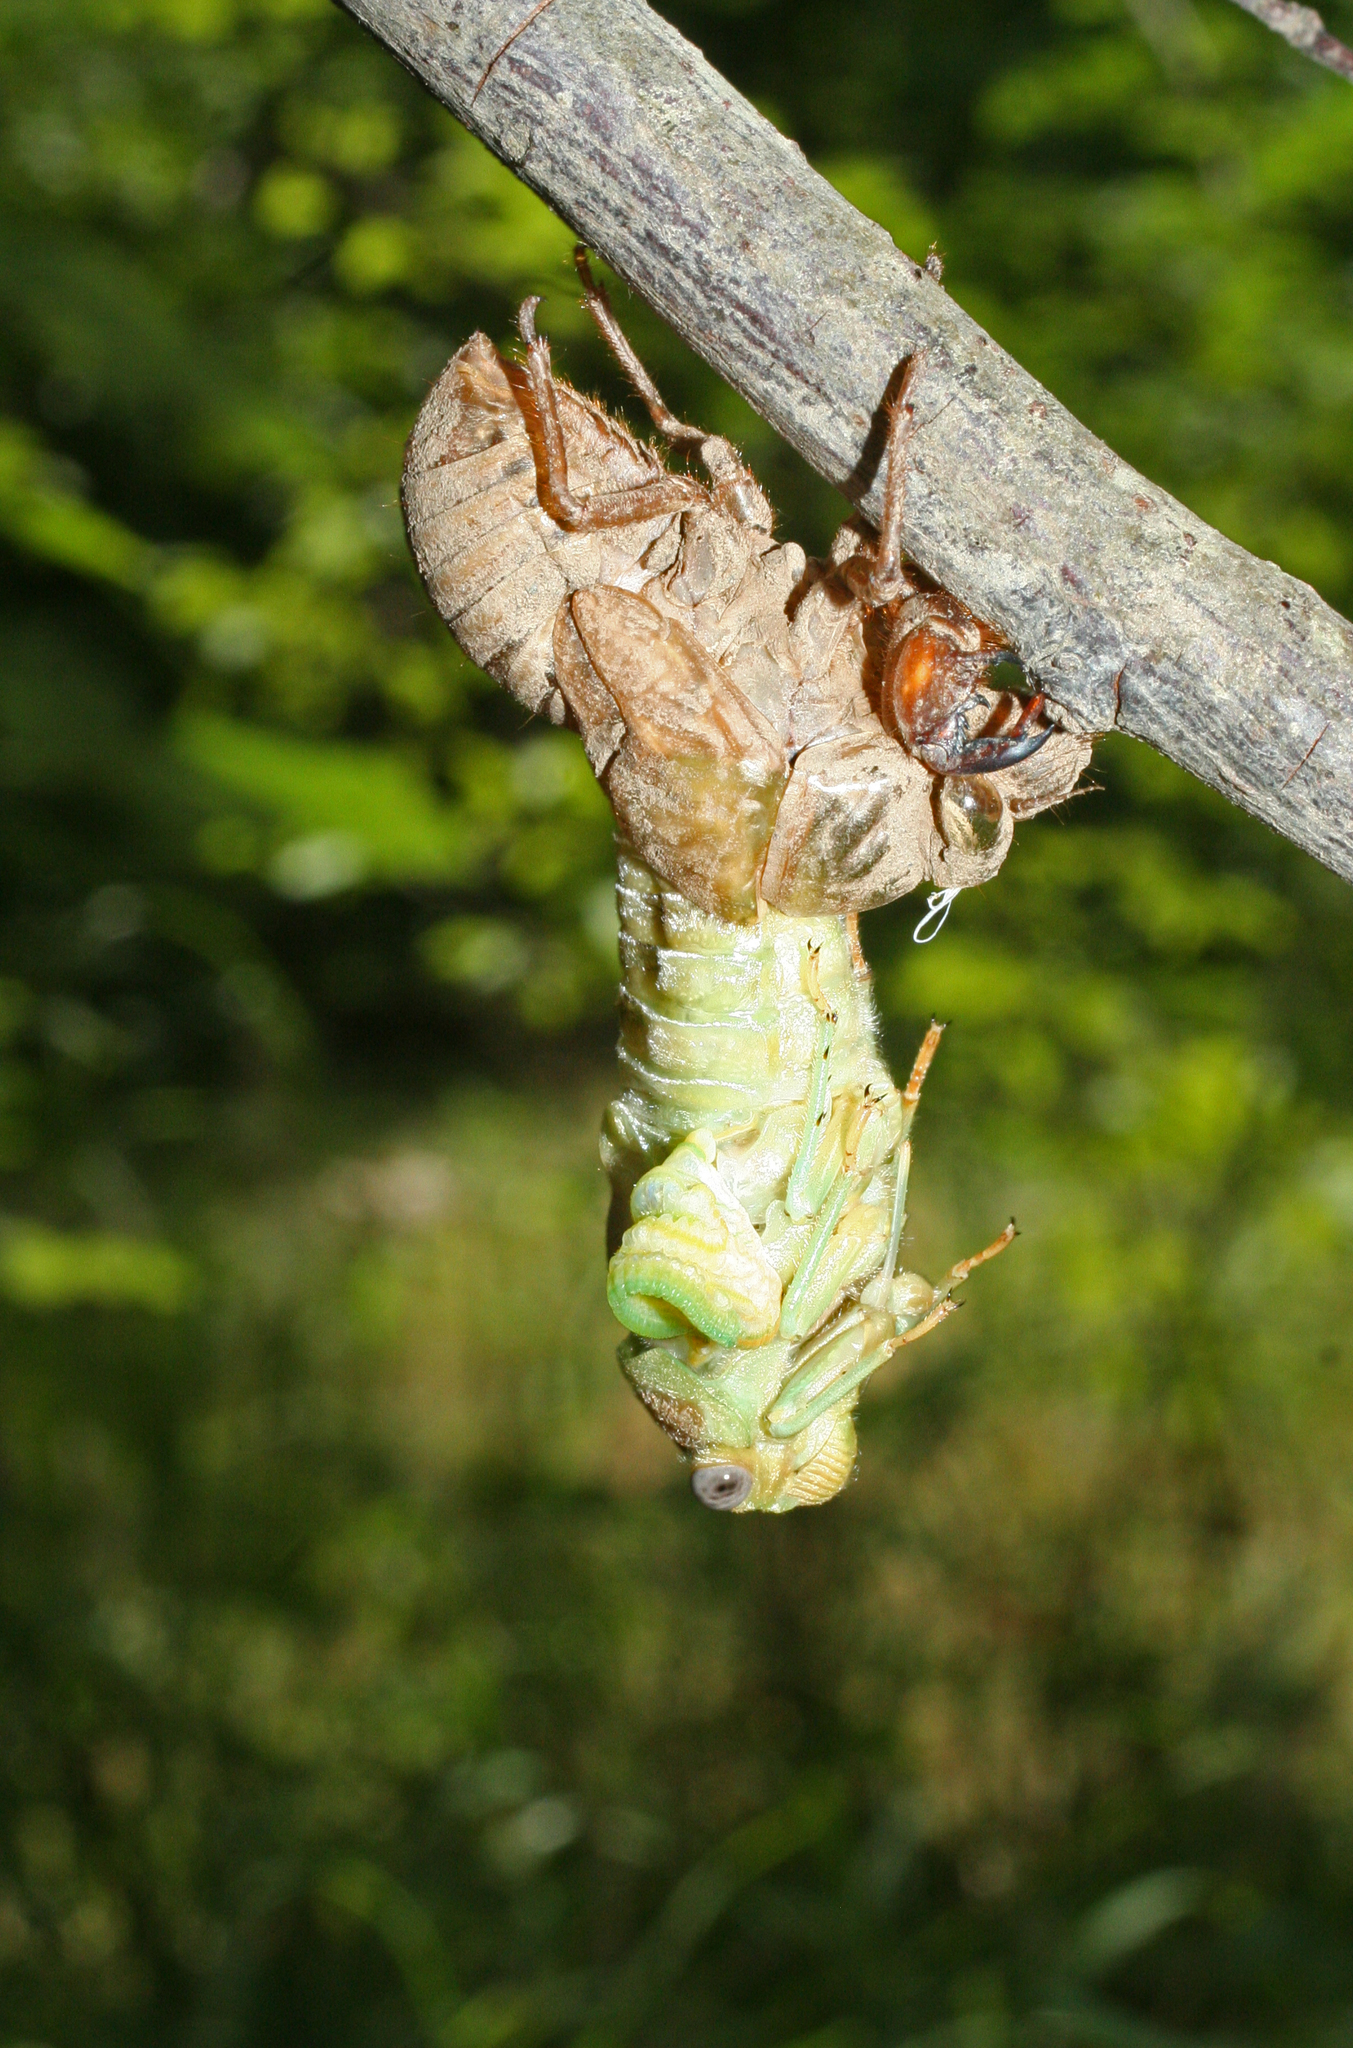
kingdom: Animalia
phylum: Arthropoda
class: Insecta
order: Hemiptera
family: Cicadidae
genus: Lyristes
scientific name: Lyristes plebejus
